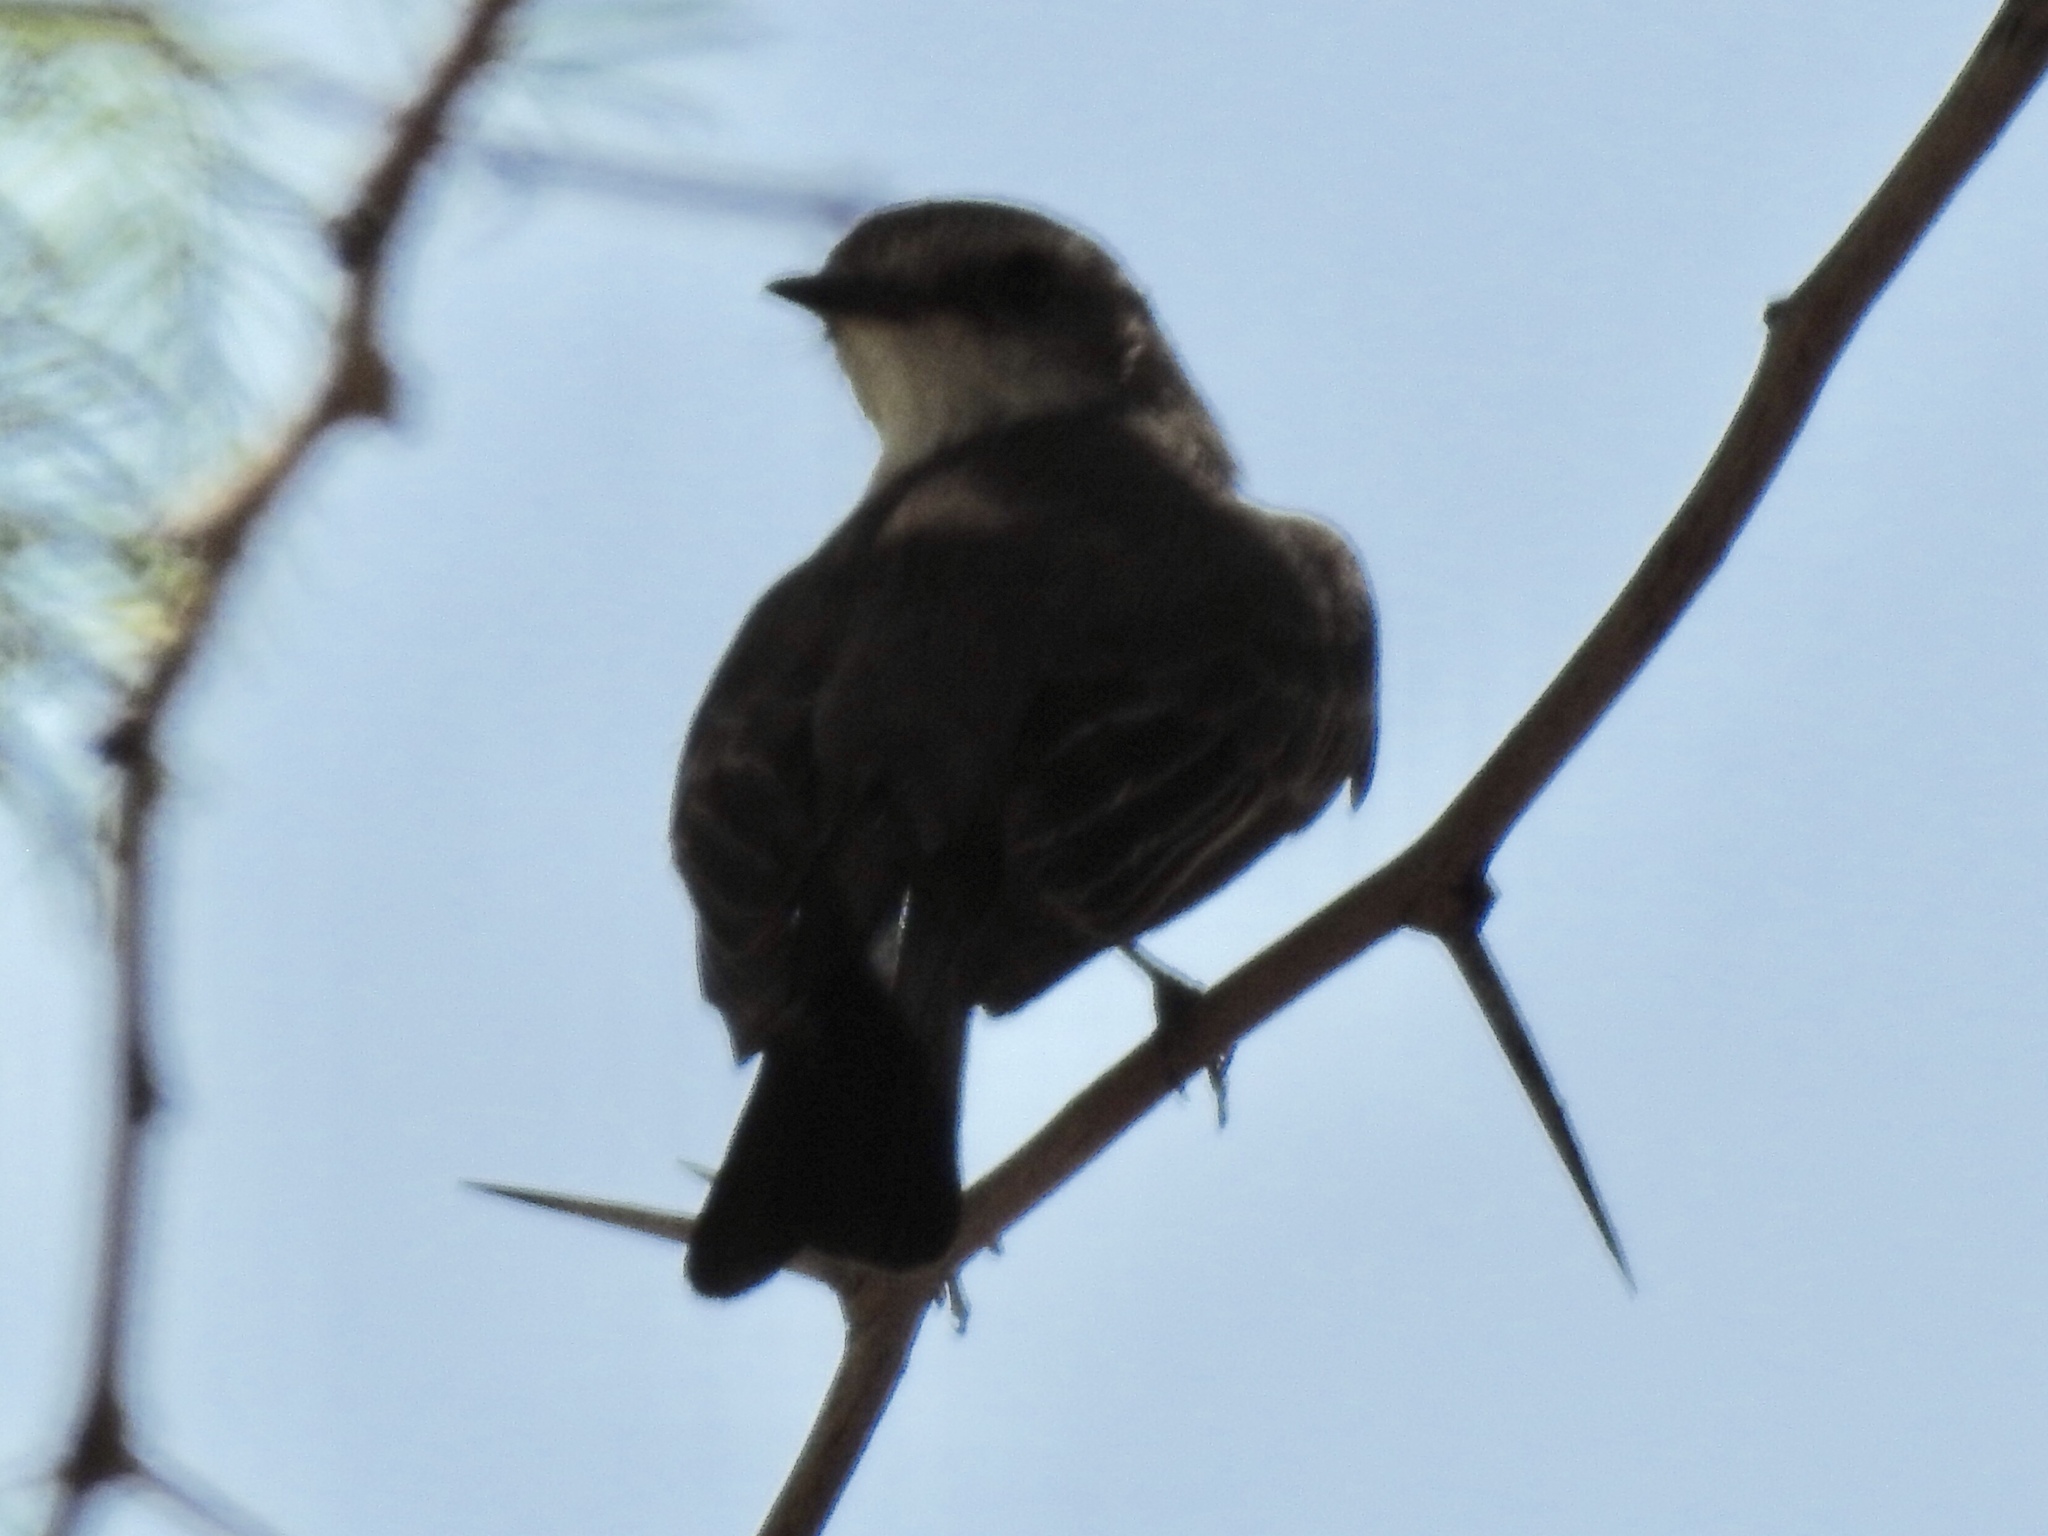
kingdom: Animalia
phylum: Chordata
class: Aves
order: Passeriformes
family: Tyrannidae
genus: Pyrocephalus
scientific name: Pyrocephalus rubinus
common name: Vermilion flycatcher
